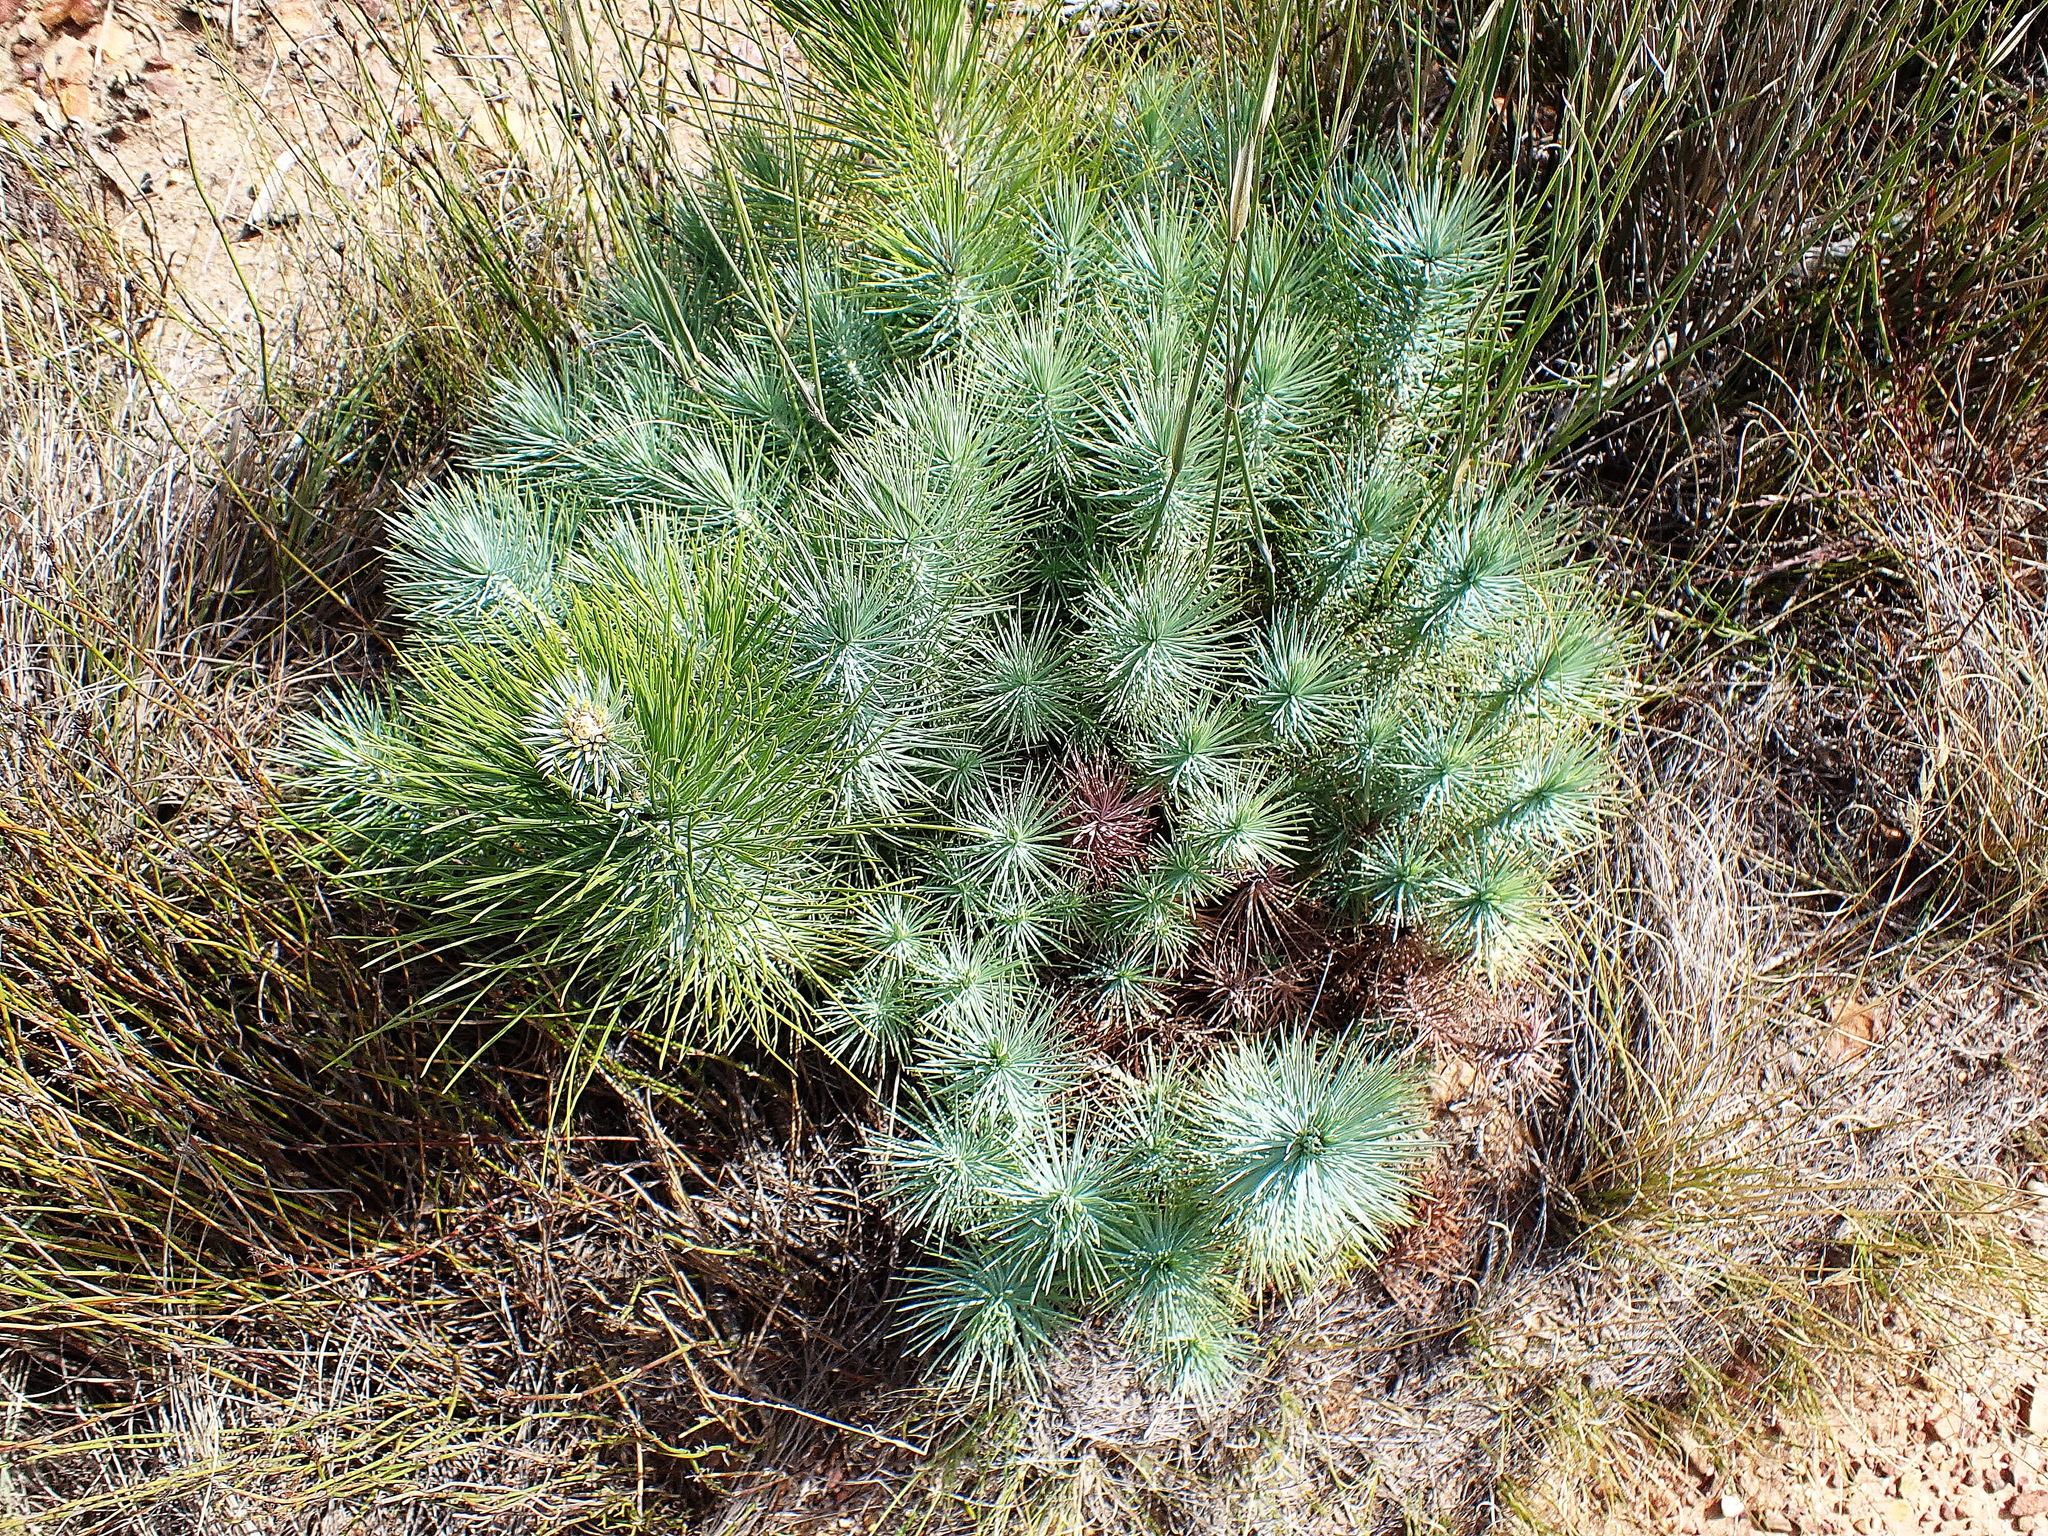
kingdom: Plantae
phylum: Tracheophyta
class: Pinopsida
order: Pinales
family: Pinaceae
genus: Pinus
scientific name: Pinus canariensis
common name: Canary islands pine
